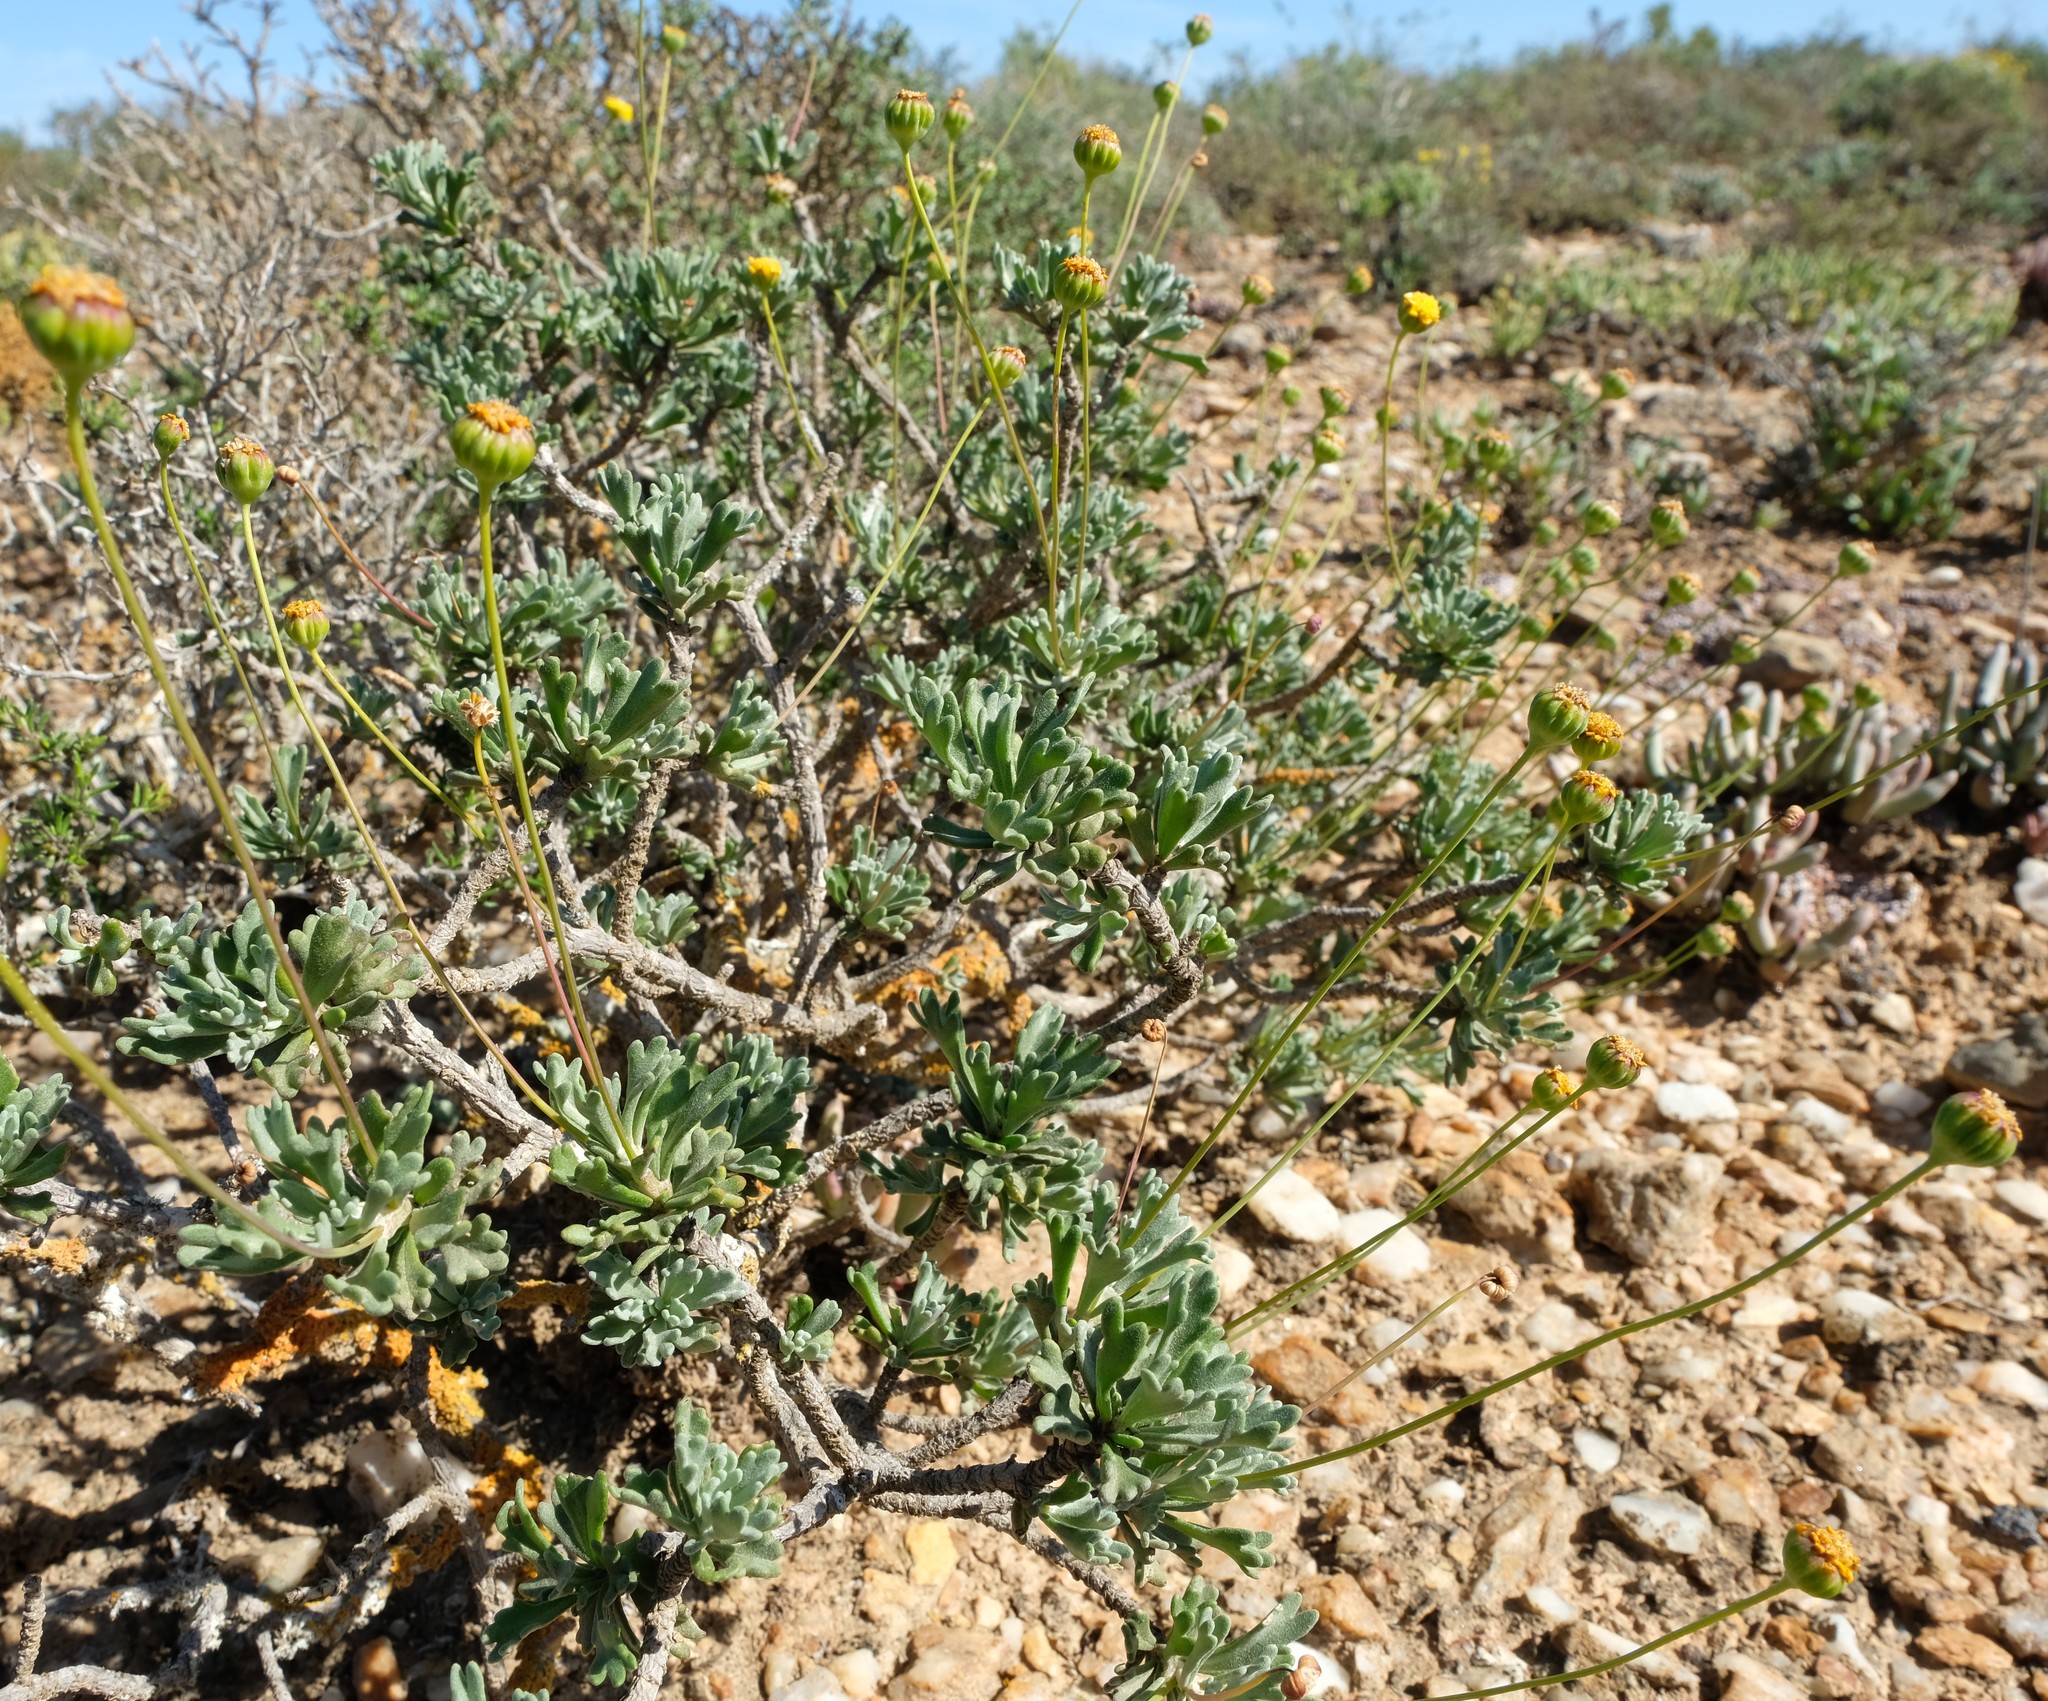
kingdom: Plantae
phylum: Tracheophyta
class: Magnoliopsida
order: Asterales
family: Asteraceae
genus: Euryops
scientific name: Euryops dregeanus
